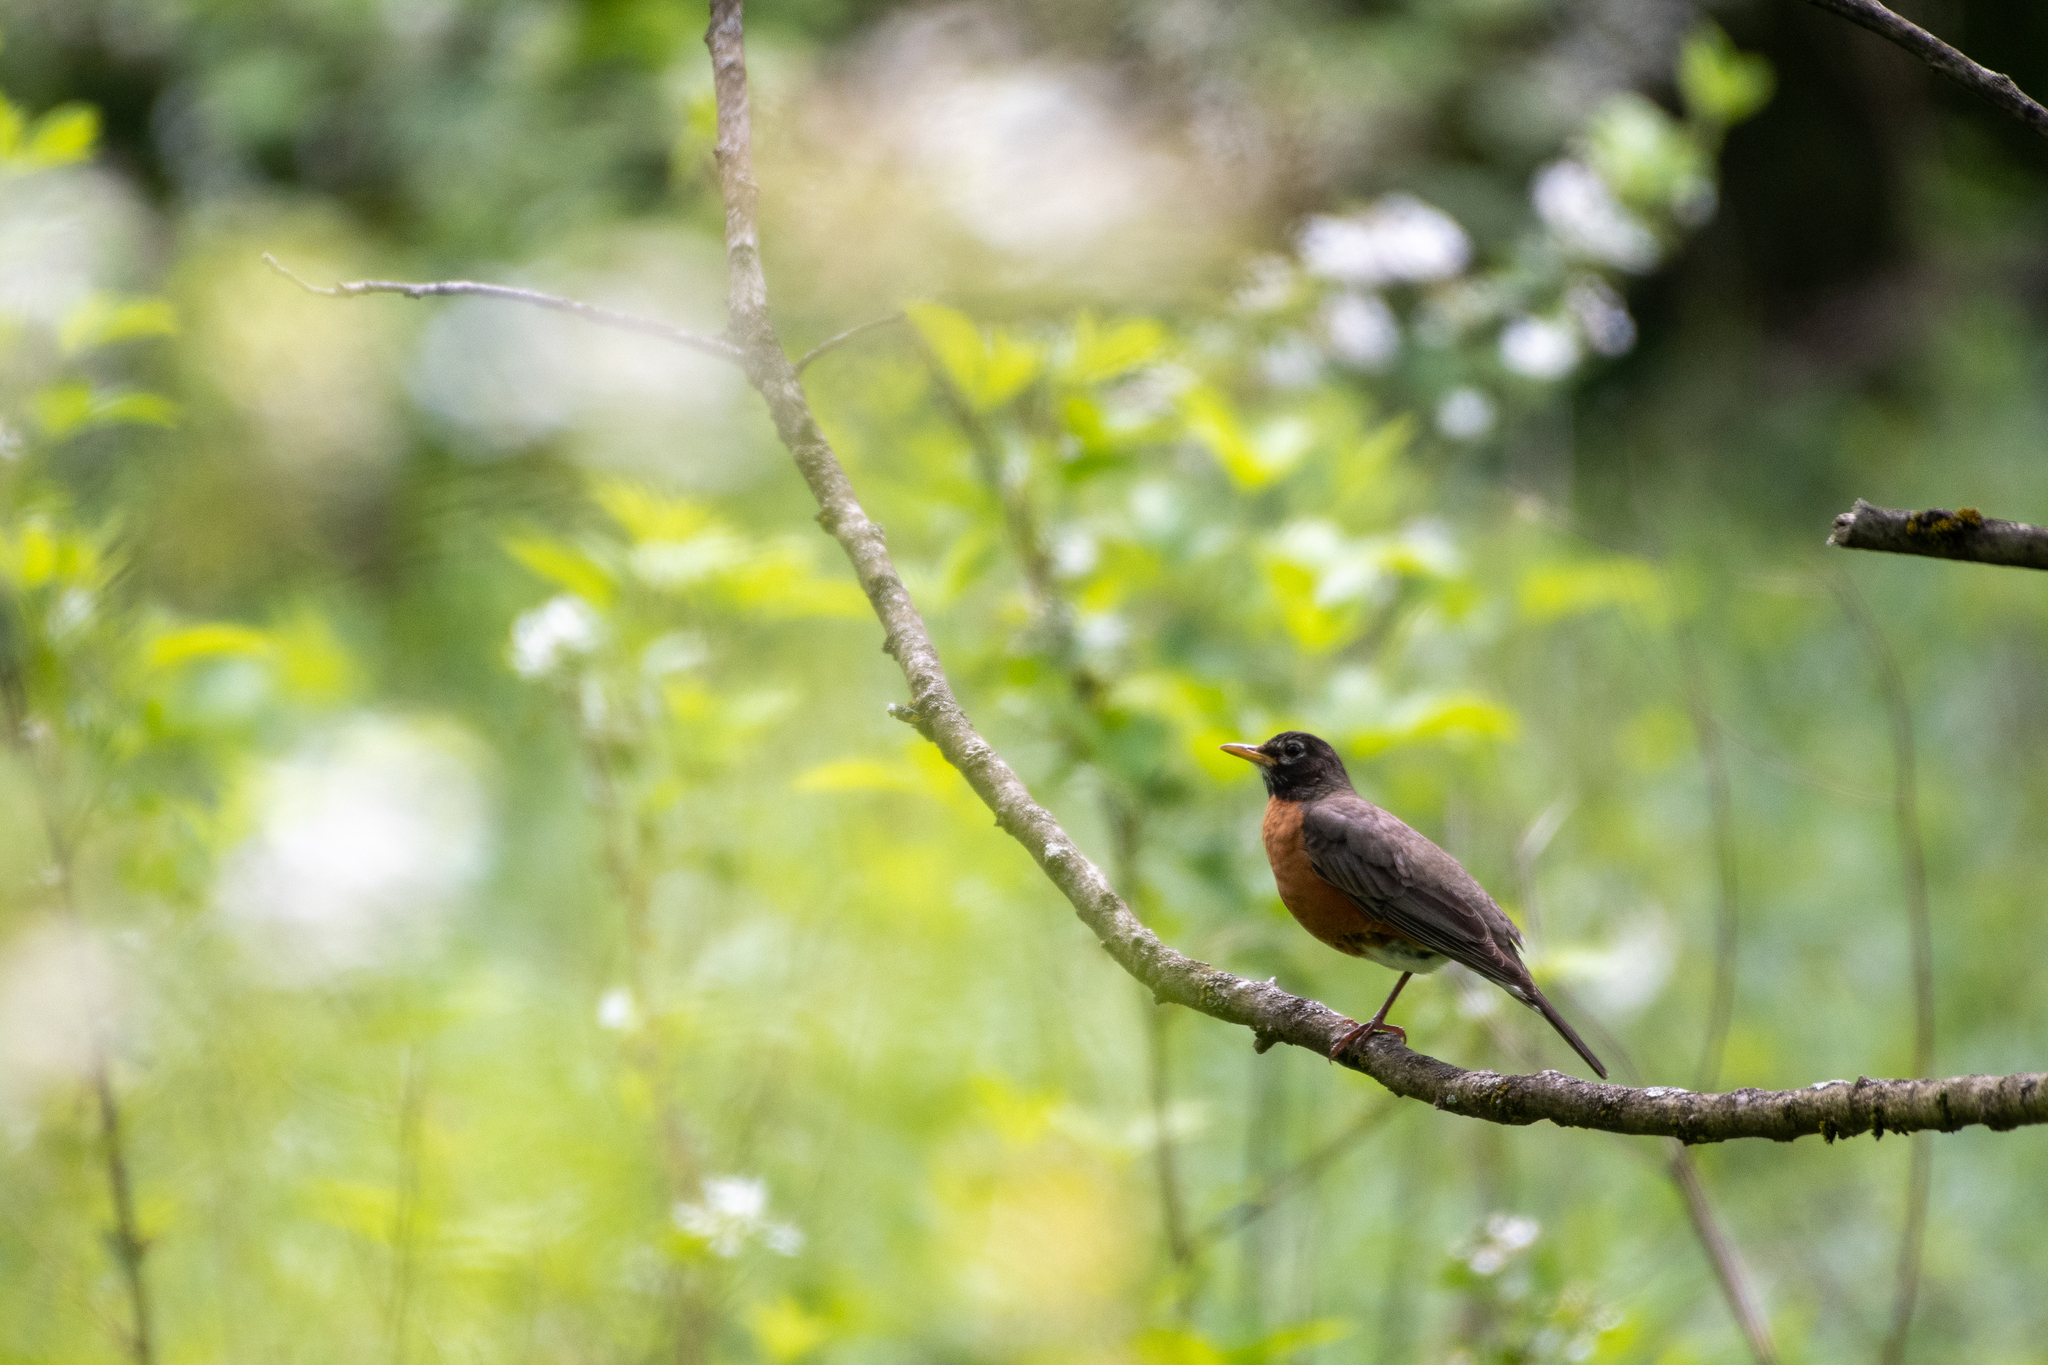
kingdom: Animalia
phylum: Chordata
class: Aves
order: Passeriformes
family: Turdidae
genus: Turdus
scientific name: Turdus migratorius
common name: American robin
